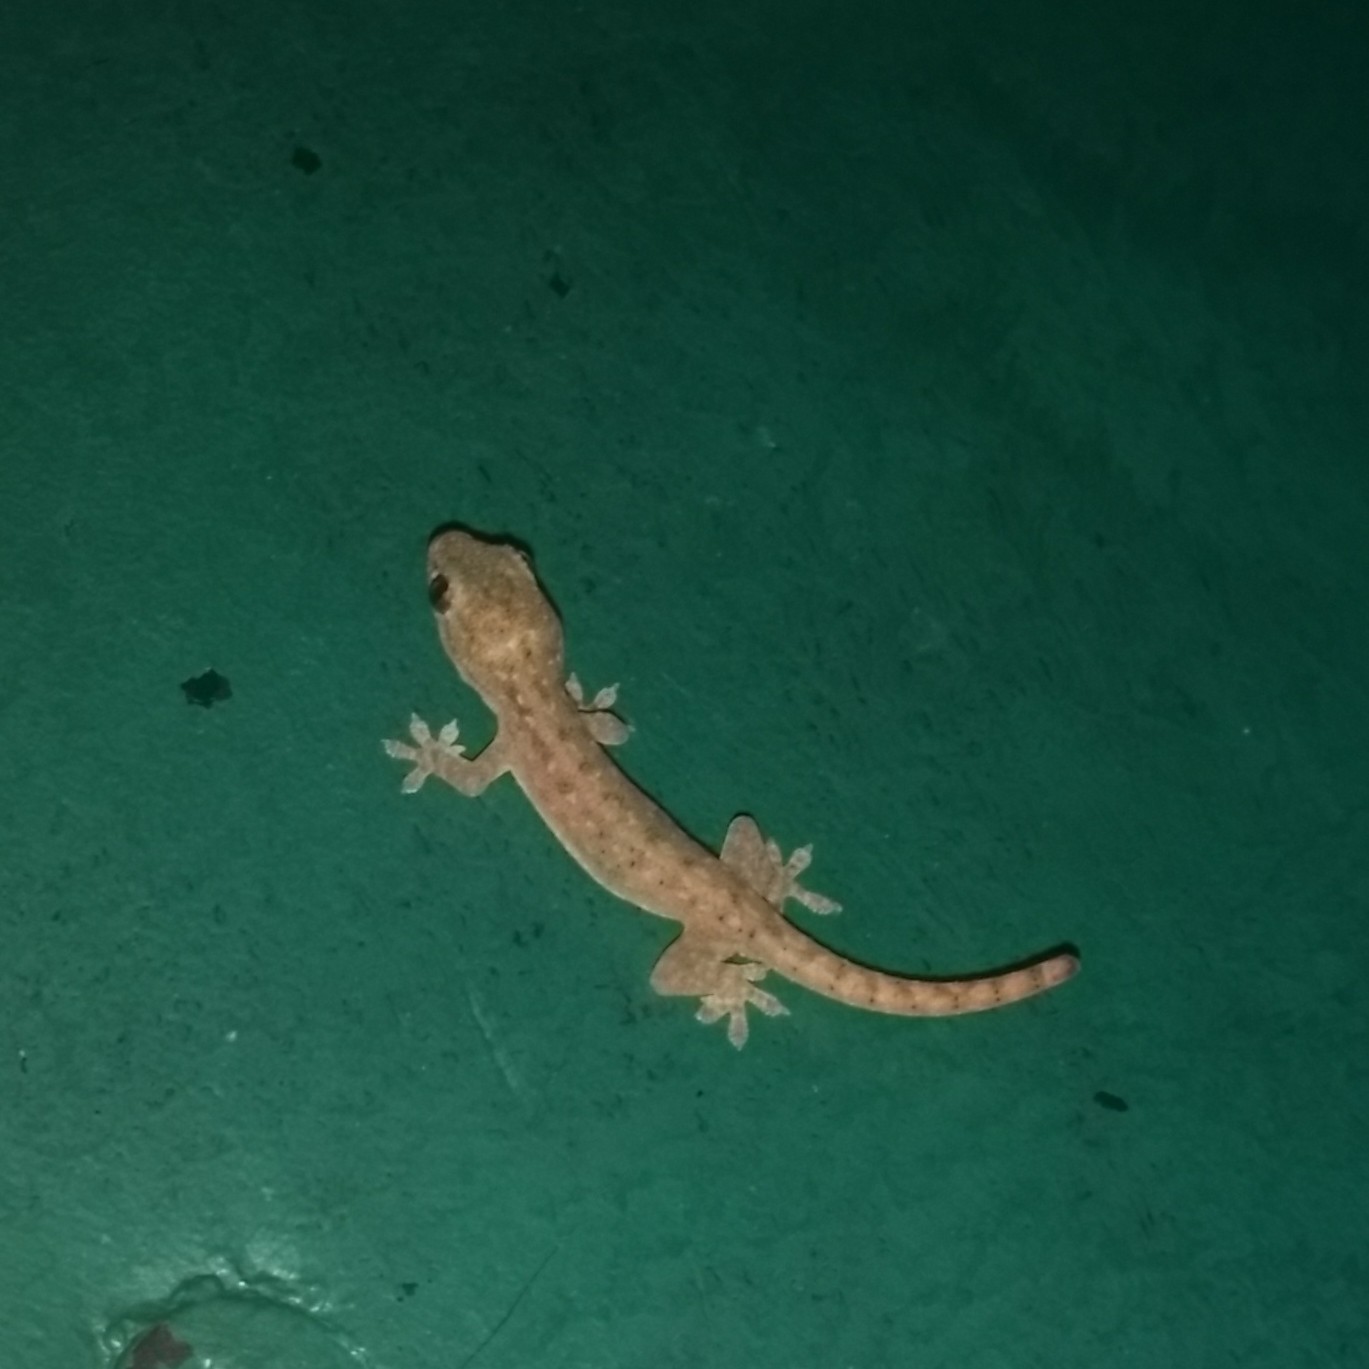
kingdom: Animalia
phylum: Chordata
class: Squamata
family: Gekkonidae
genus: Hemidactylus
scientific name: Hemidactylus frenatus
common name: Common house gecko
